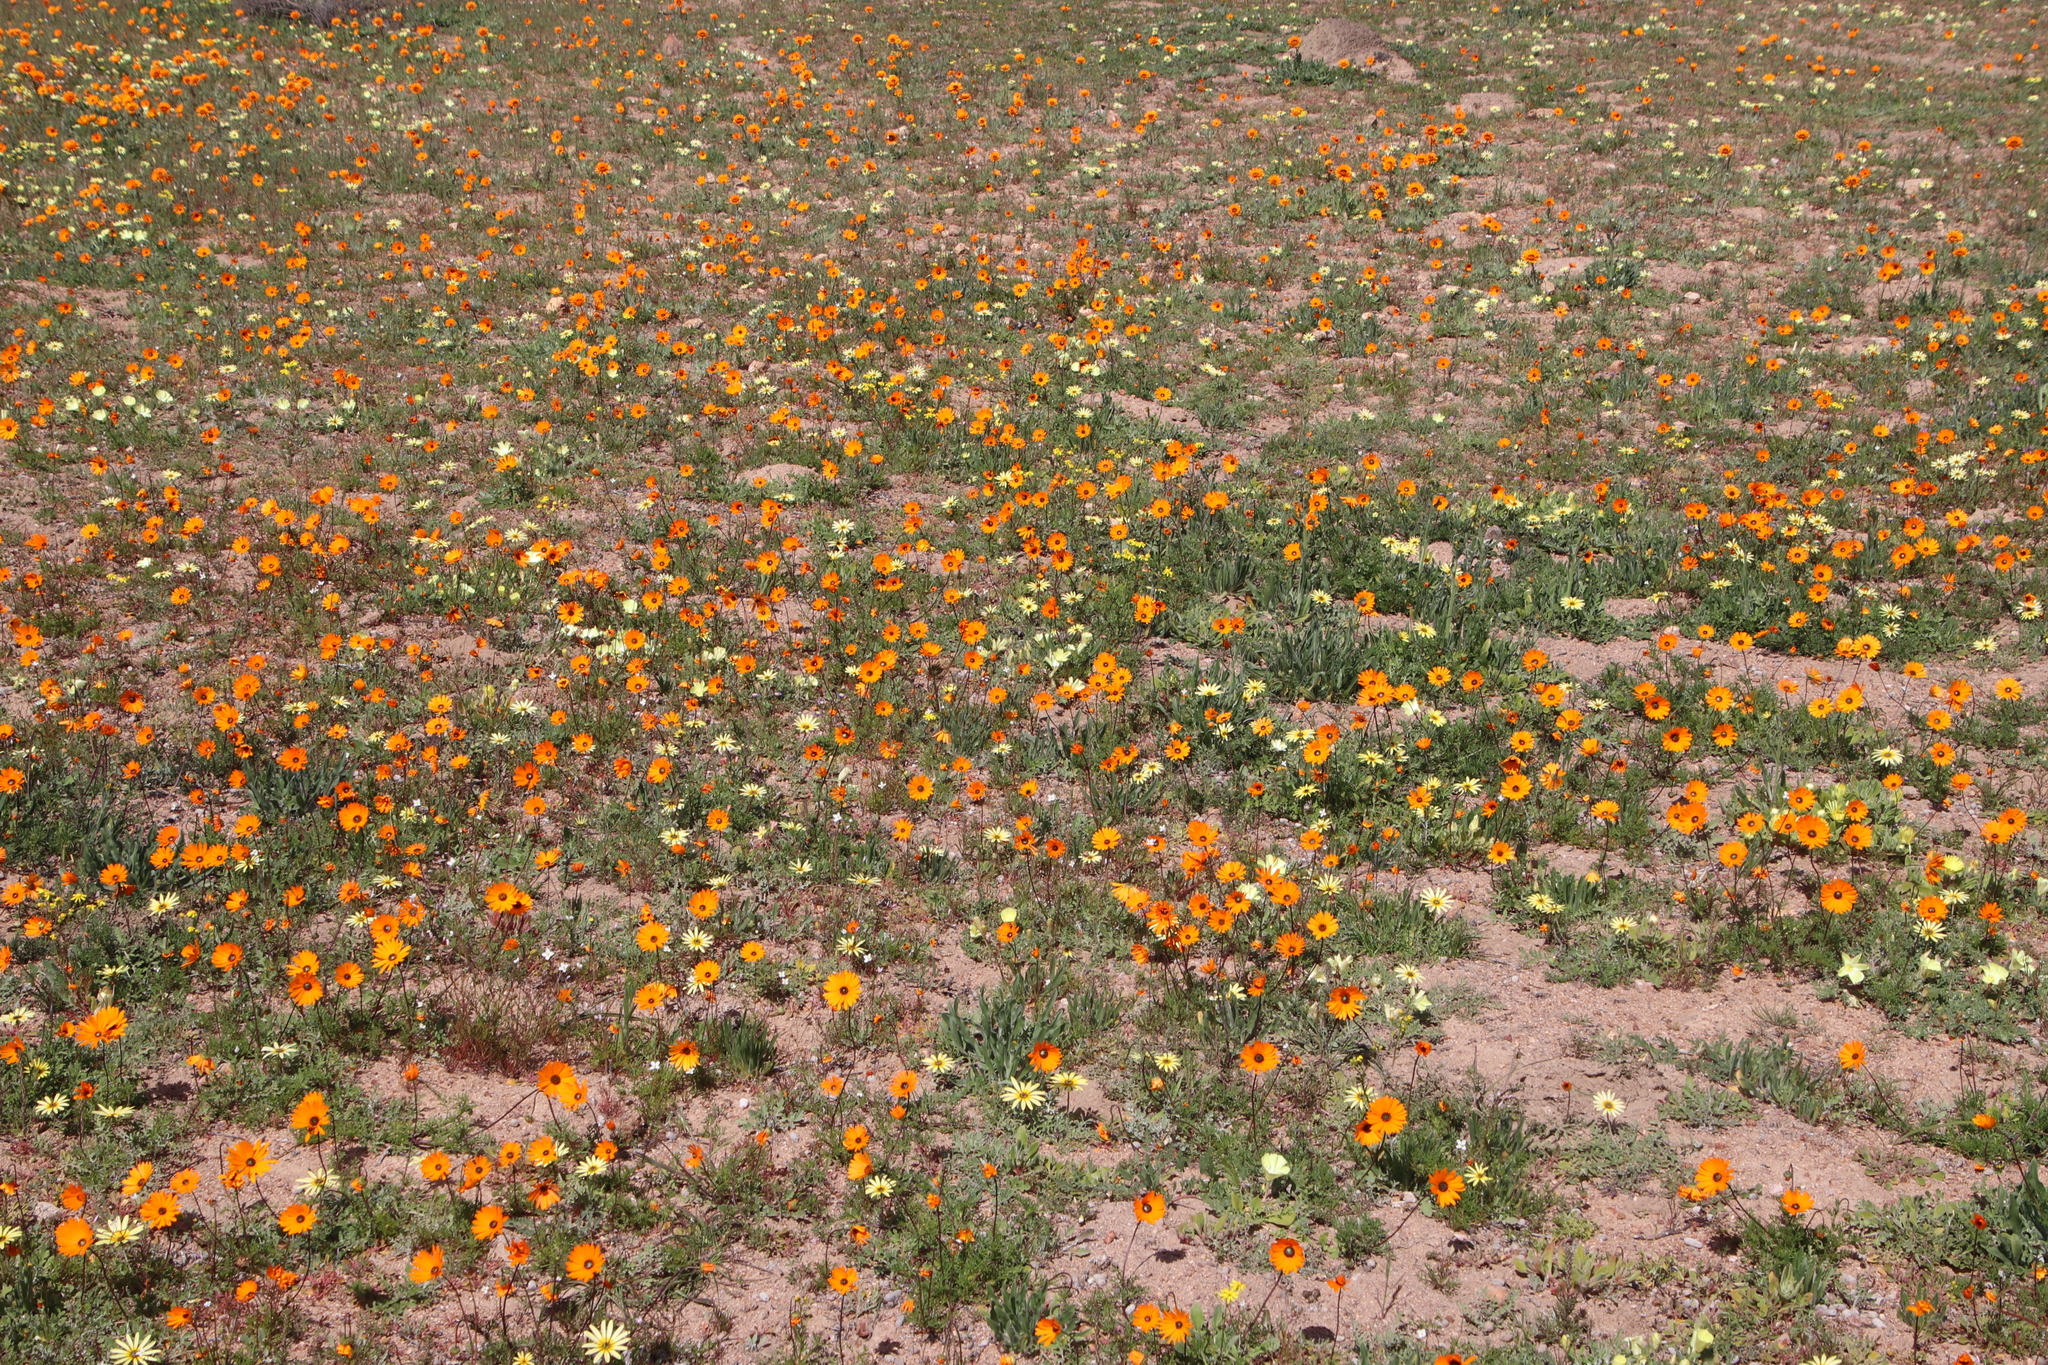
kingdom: Plantae
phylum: Tracheophyta
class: Magnoliopsida
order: Asterales
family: Asteraceae
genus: Arctotheca
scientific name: Arctotheca calendula
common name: Capeweed
